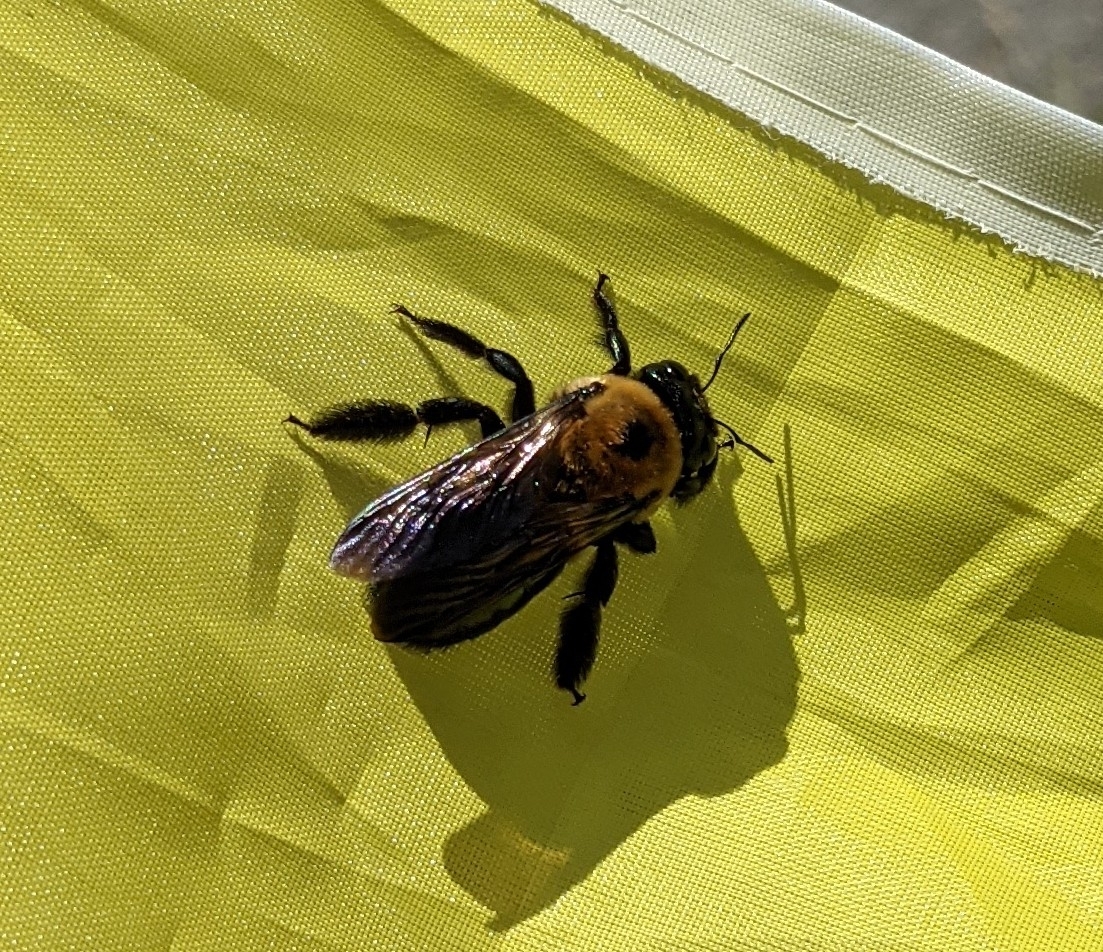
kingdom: Animalia
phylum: Arthropoda
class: Insecta
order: Hymenoptera
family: Apidae
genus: Xylocopa
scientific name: Xylocopa virginica
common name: Carpenter bee
